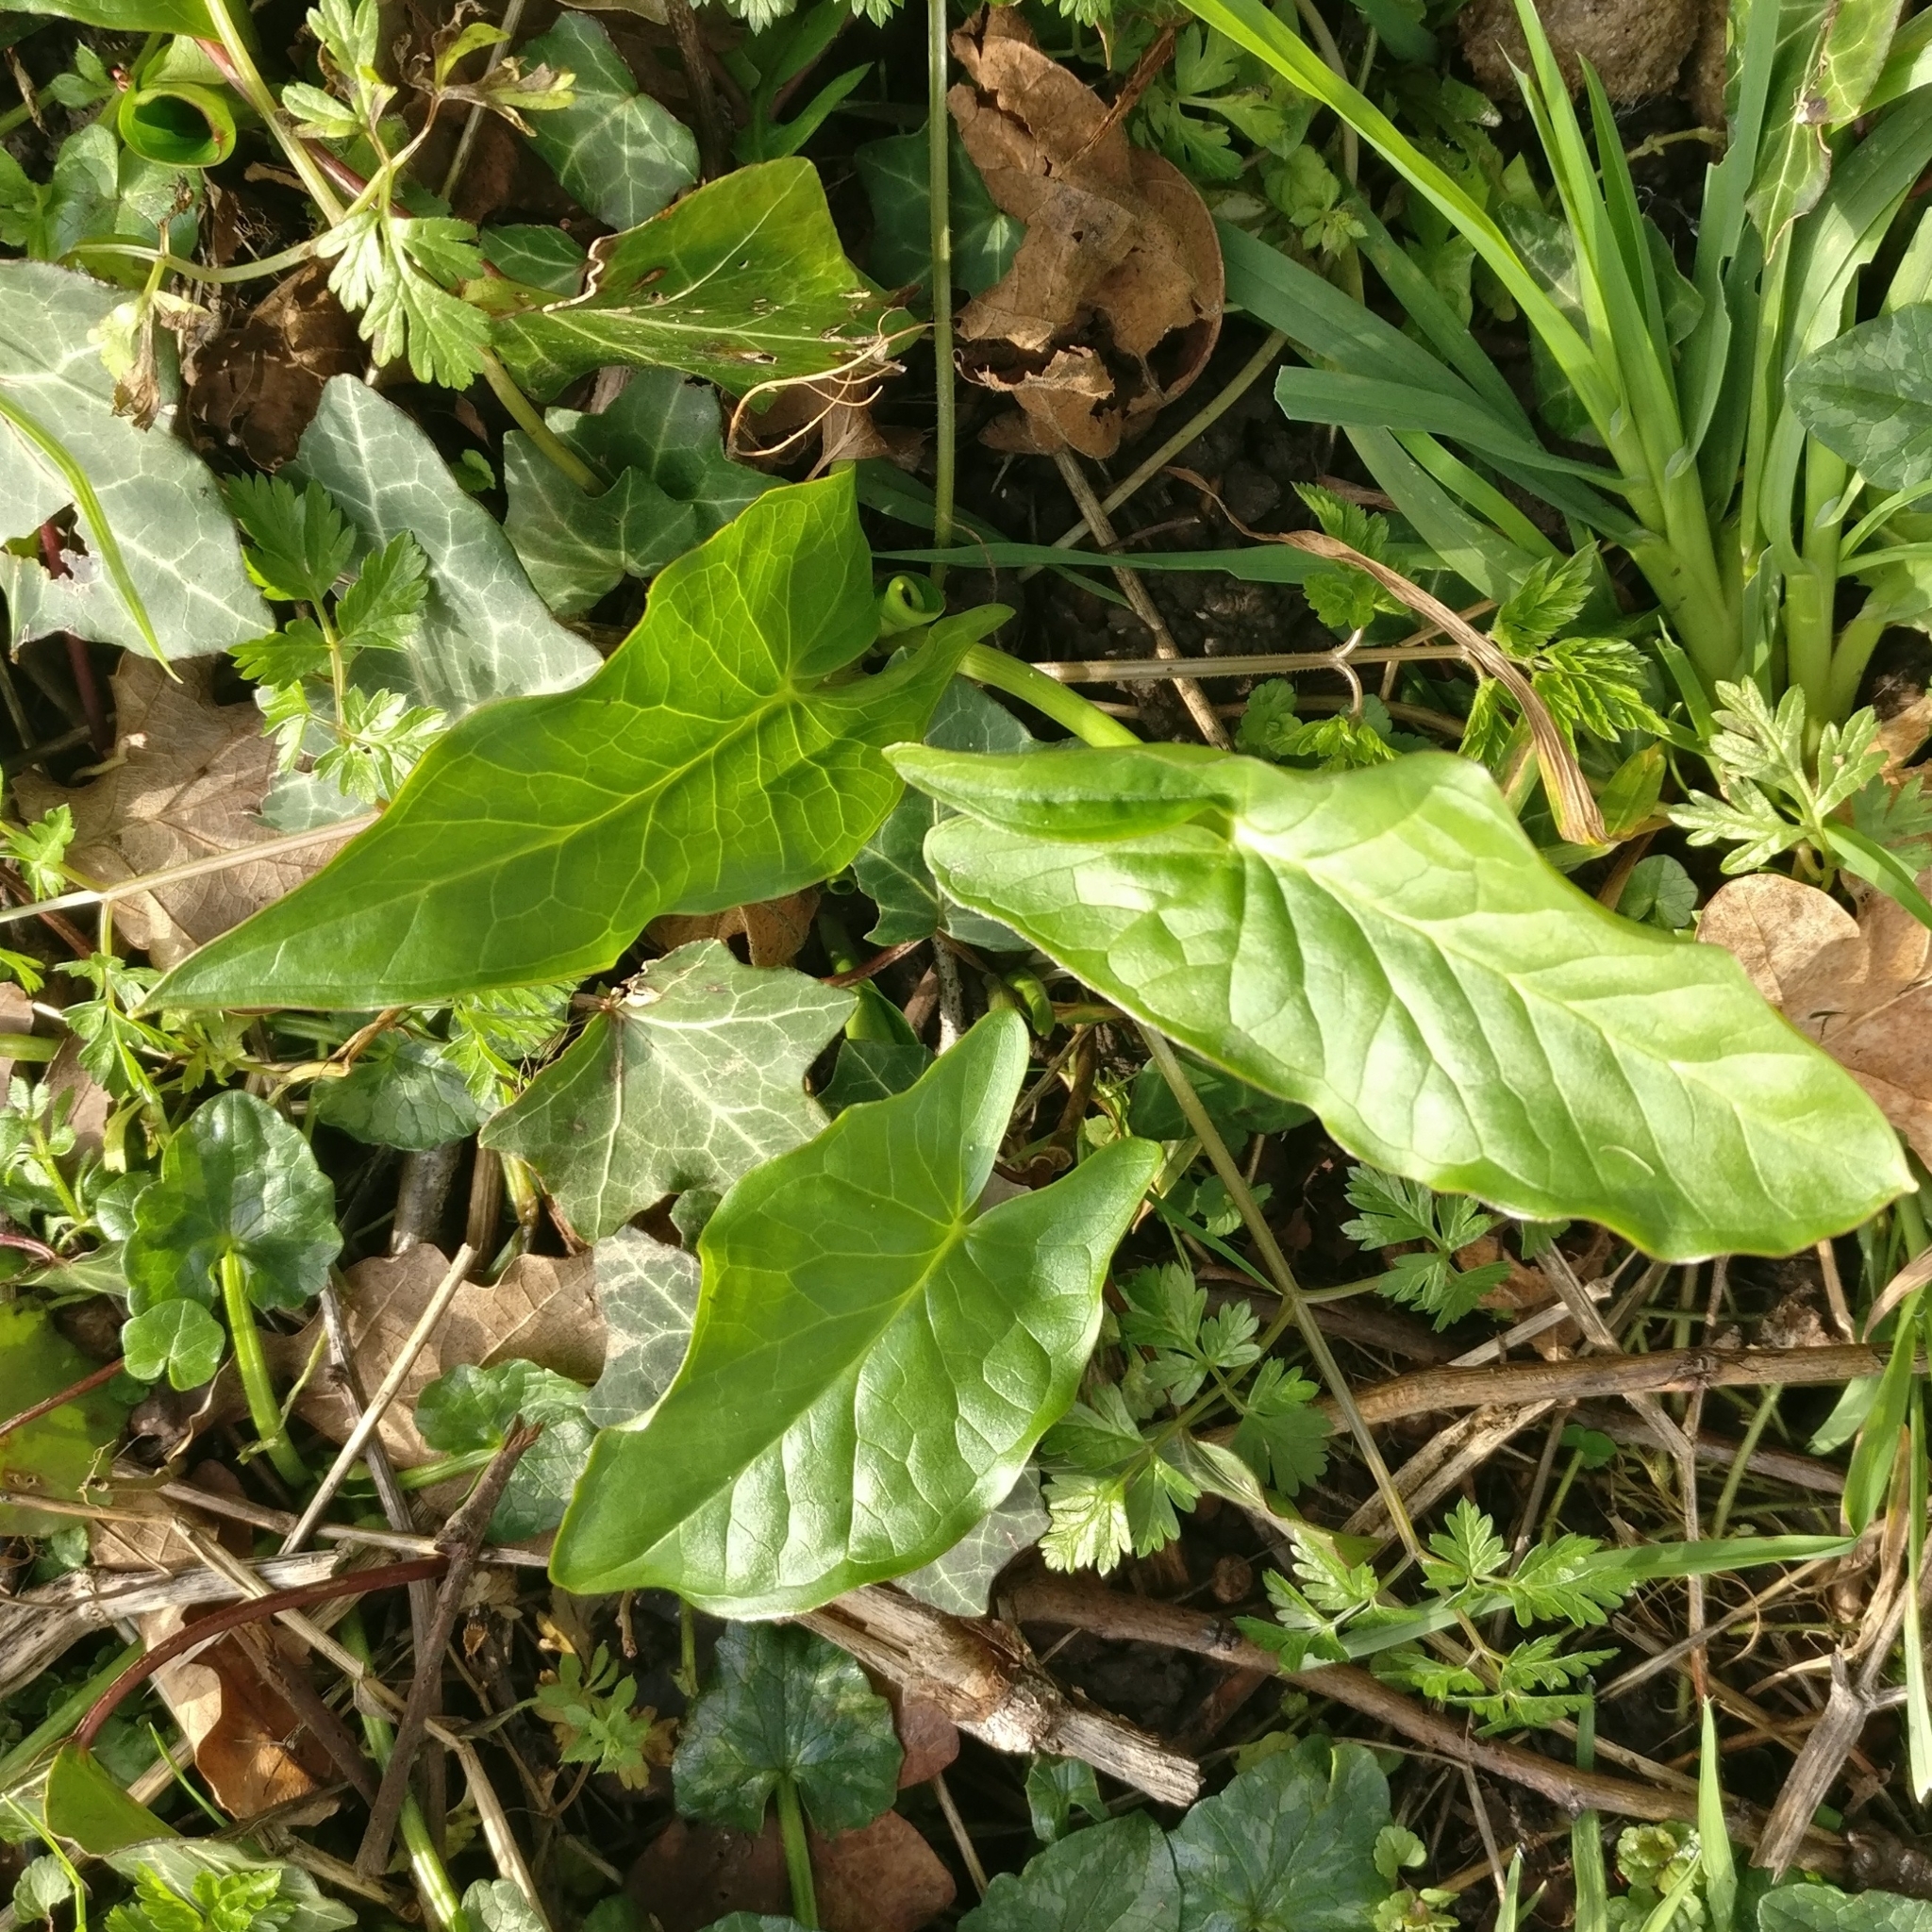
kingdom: Plantae
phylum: Tracheophyta
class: Liliopsida
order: Alismatales
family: Araceae
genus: Arum
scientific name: Arum maculatum
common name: Lords-and-ladies
